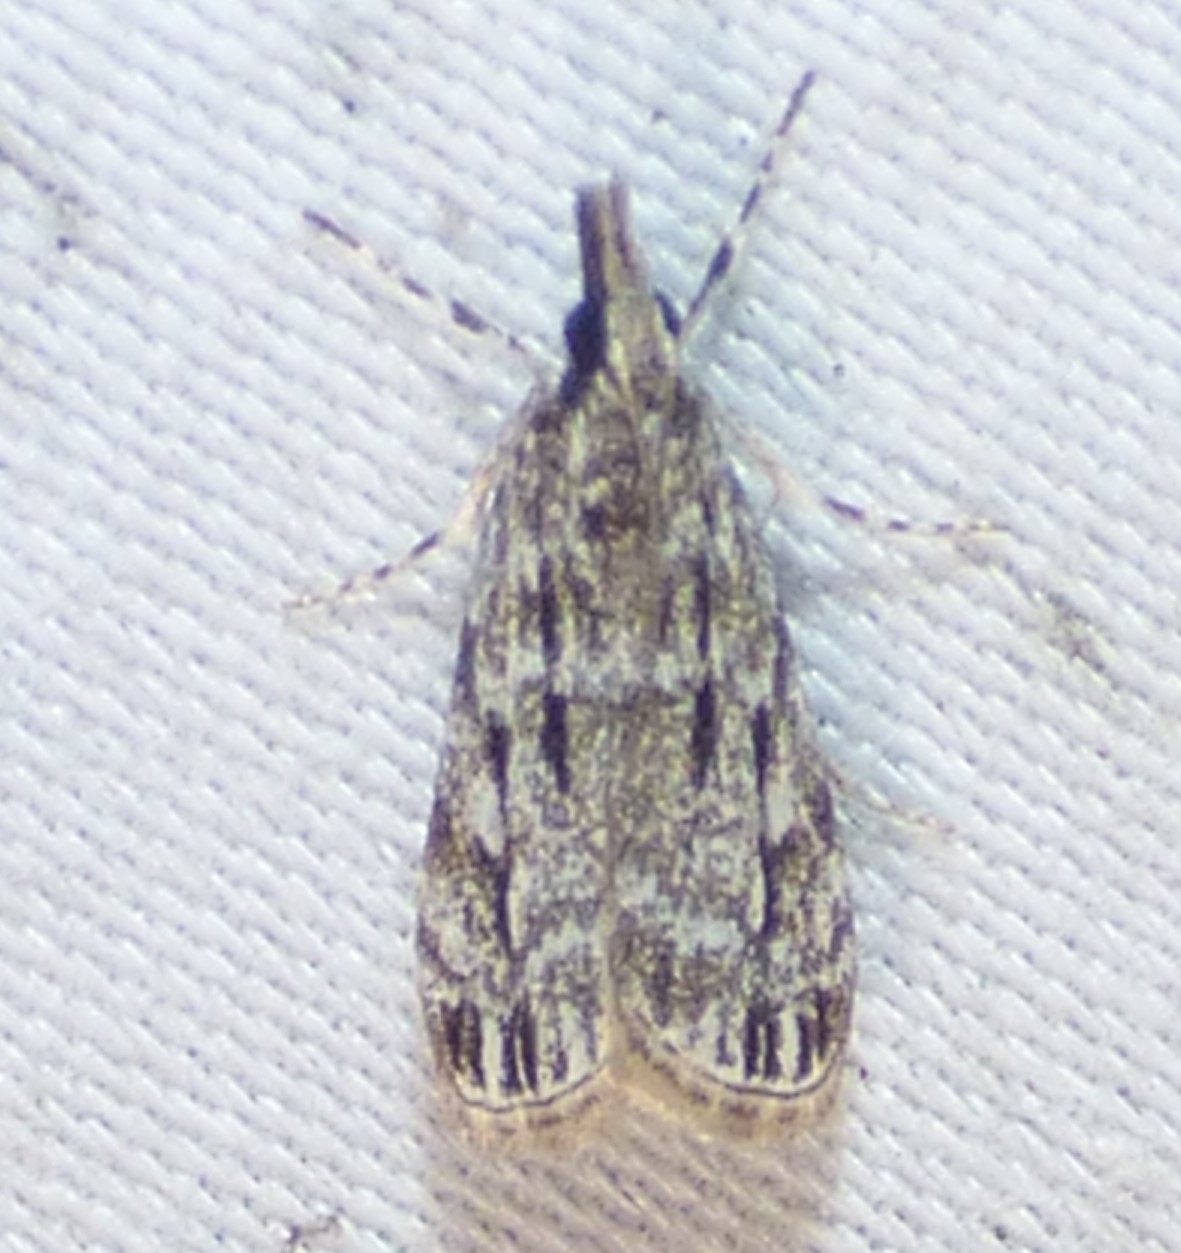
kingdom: Animalia
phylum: Arthropoda
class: Insecta
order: Lepidoptera
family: Crambidae
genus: Eudonia
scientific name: Eudonia strigalis
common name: Striped eudonia moth
